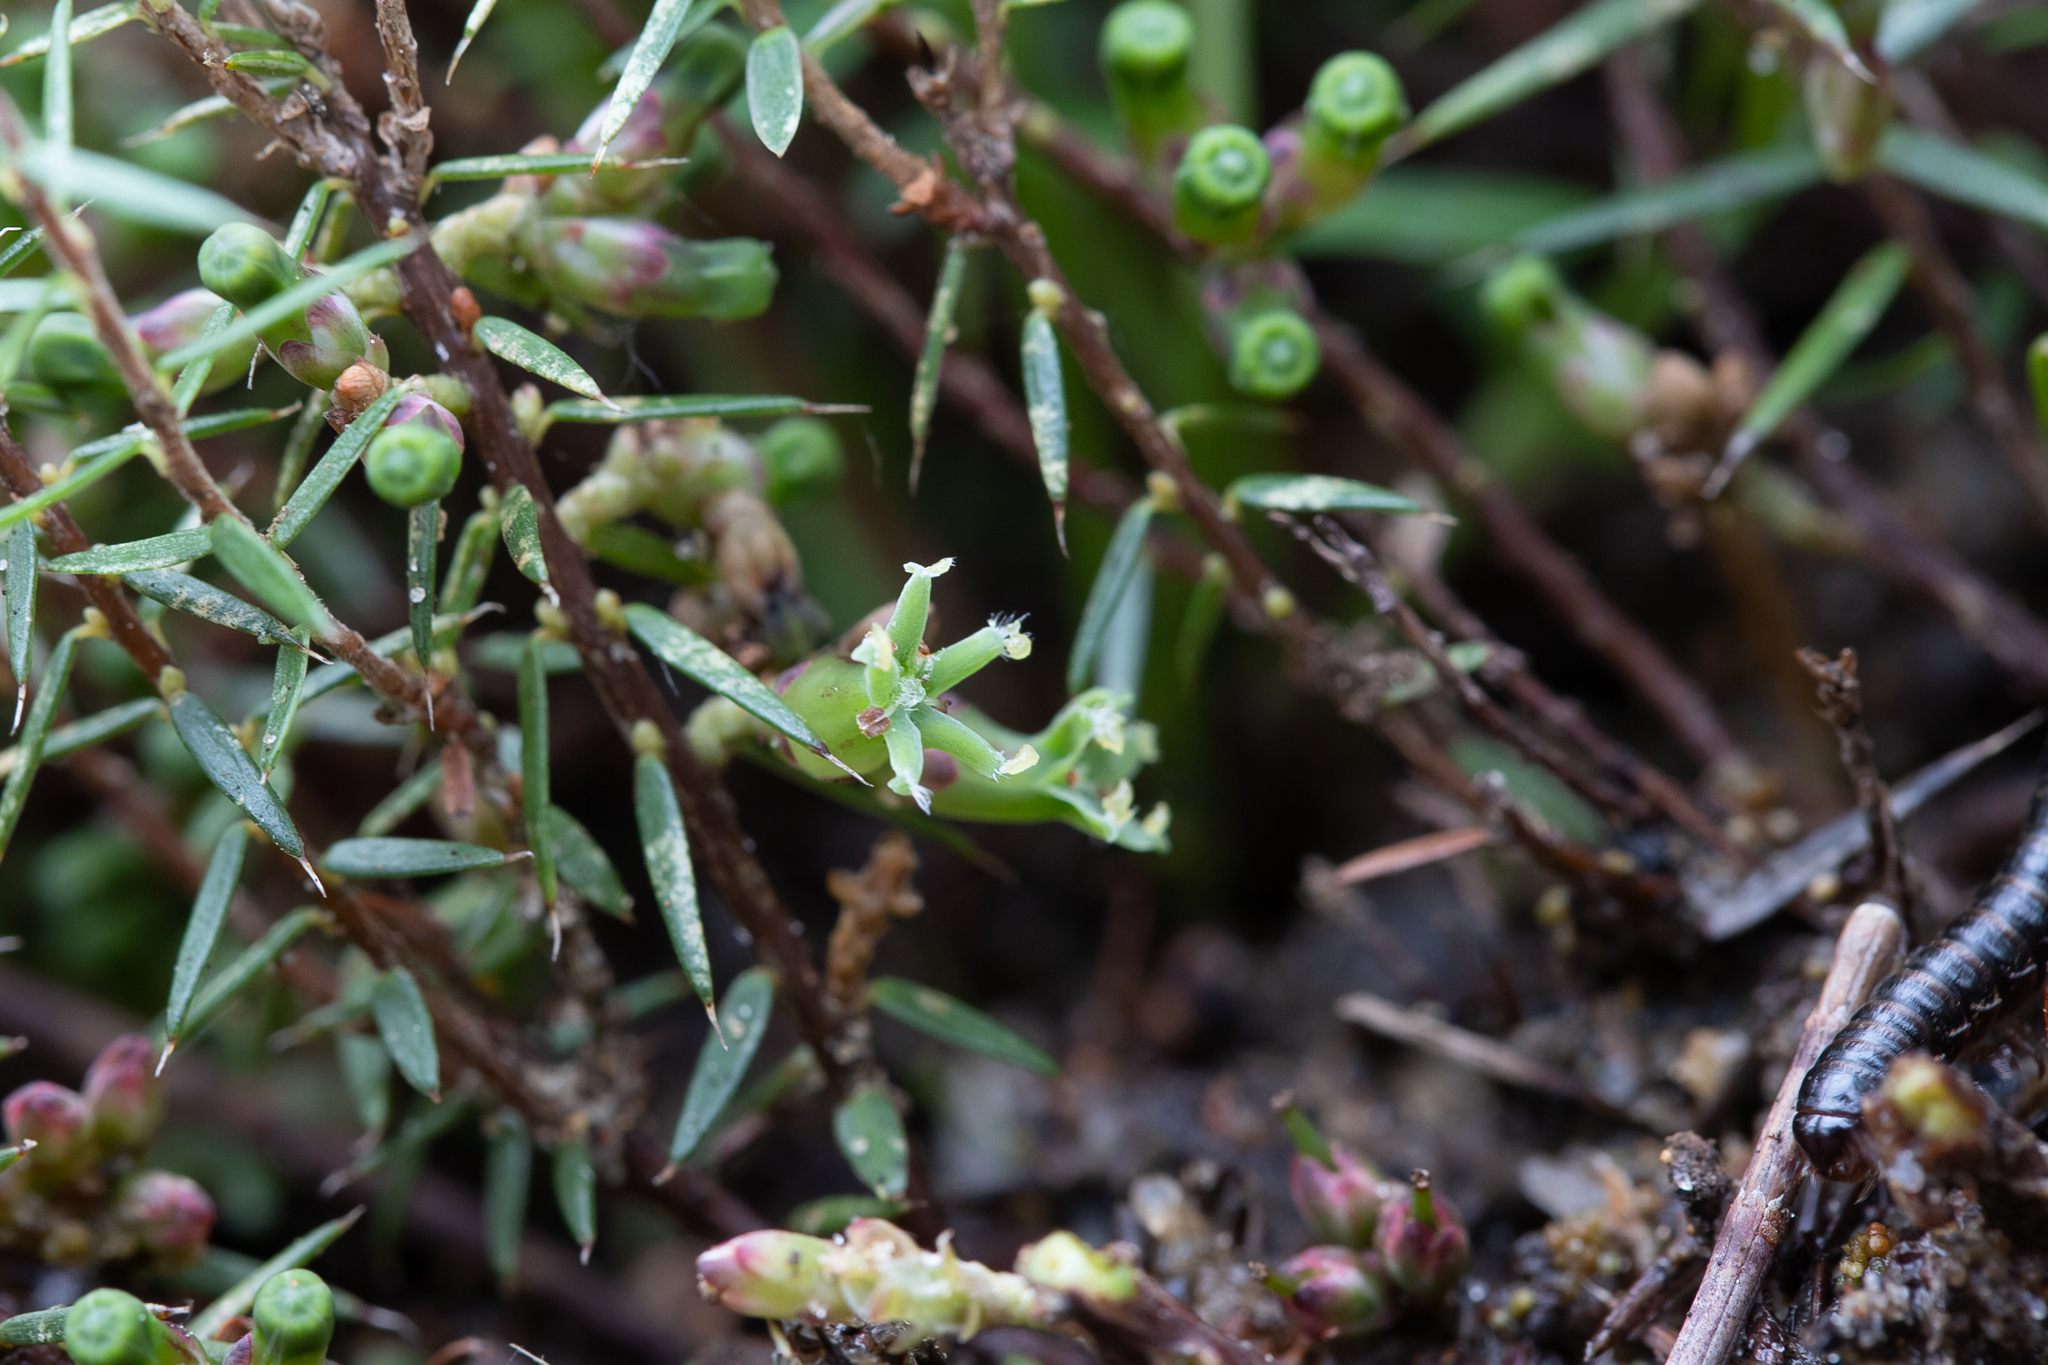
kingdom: Plantae
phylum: Tracheophyta
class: Magnoliopsida
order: Ericales
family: Ericaceae
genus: Acrotriche
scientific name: Acrotriche serrulata
